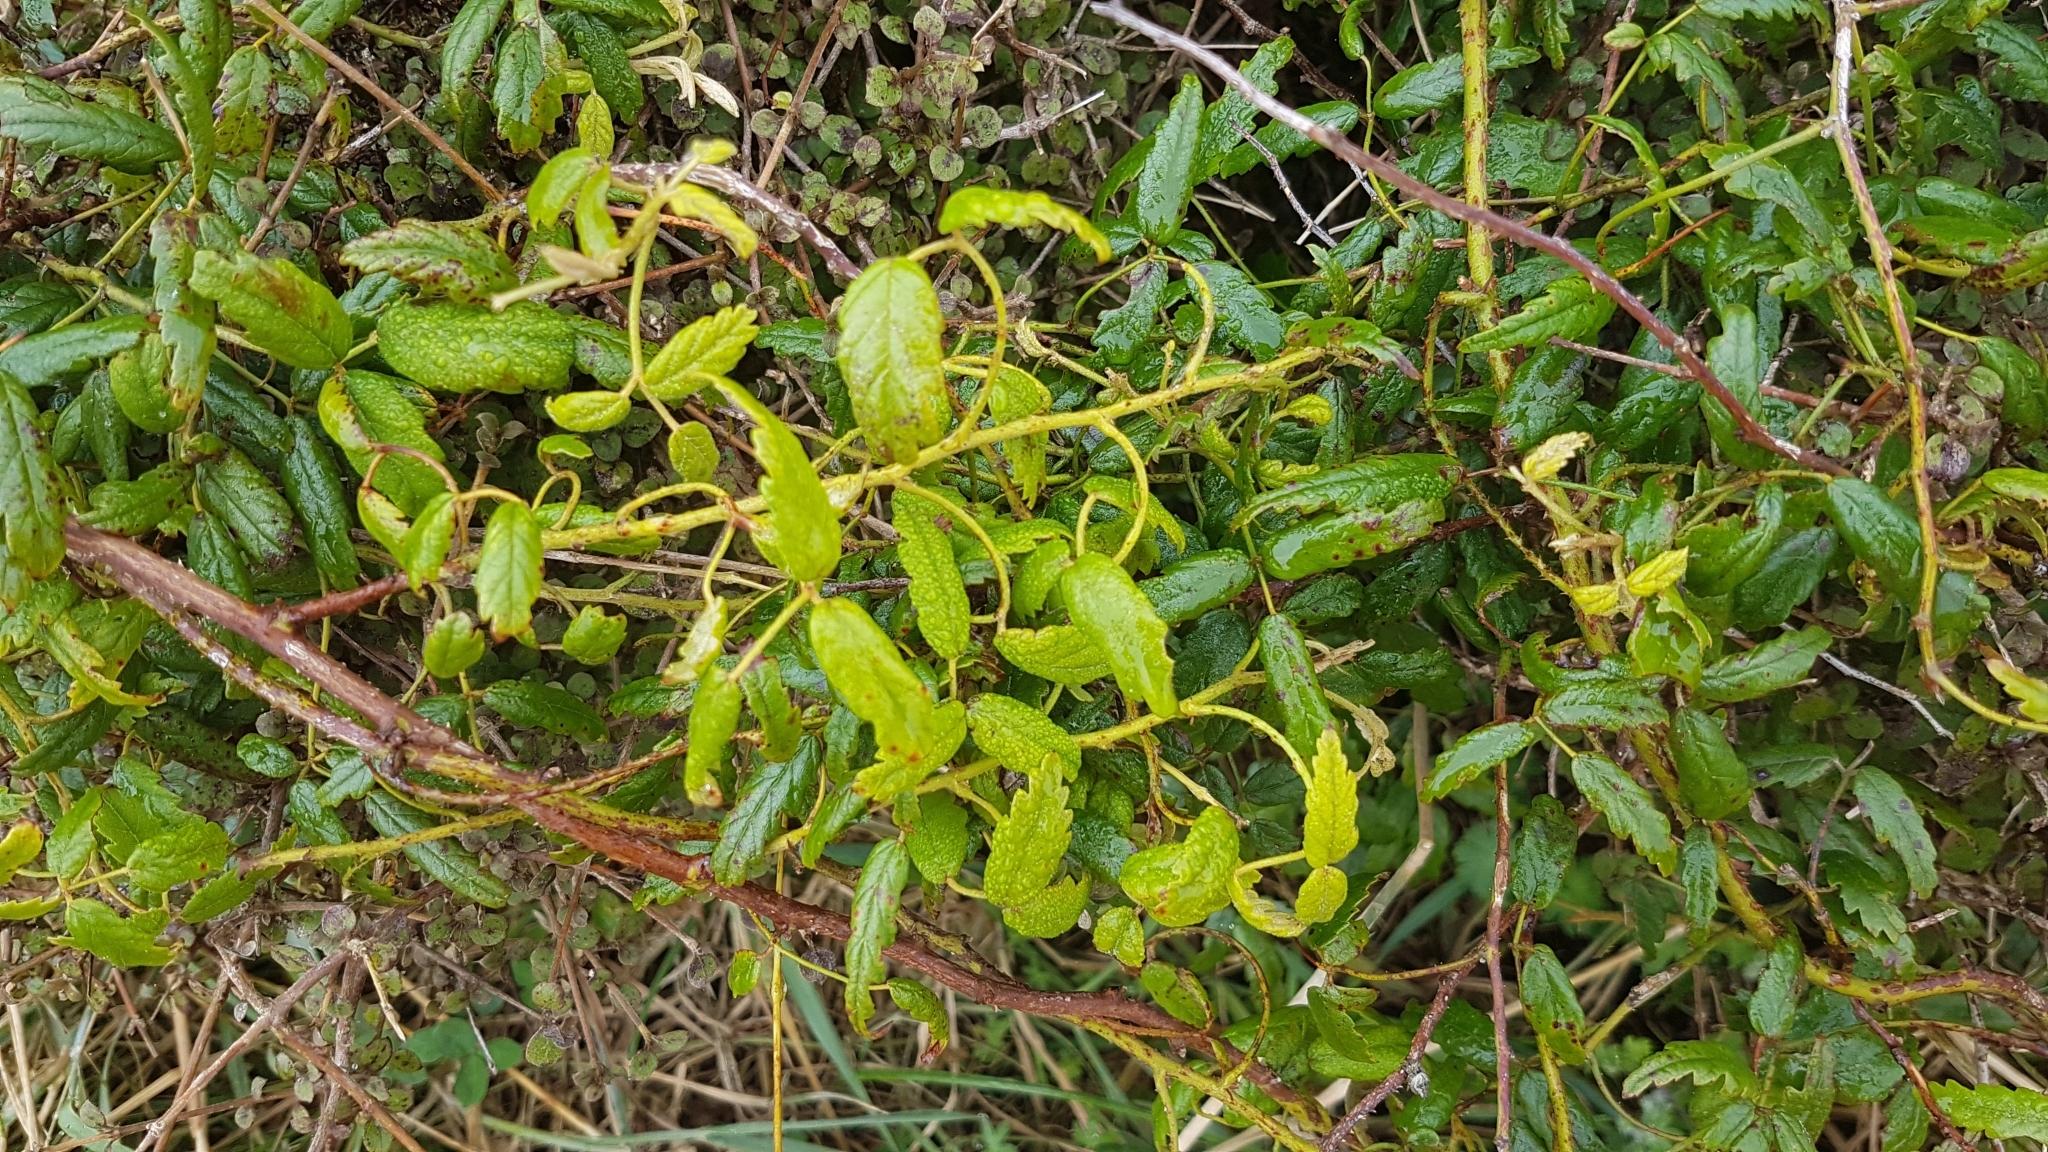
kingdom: Plantae
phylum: Tracheophyta
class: Magnoliopsida
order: Rosales
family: Rosaceae
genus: Rubus
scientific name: Rubus schmidelioides
